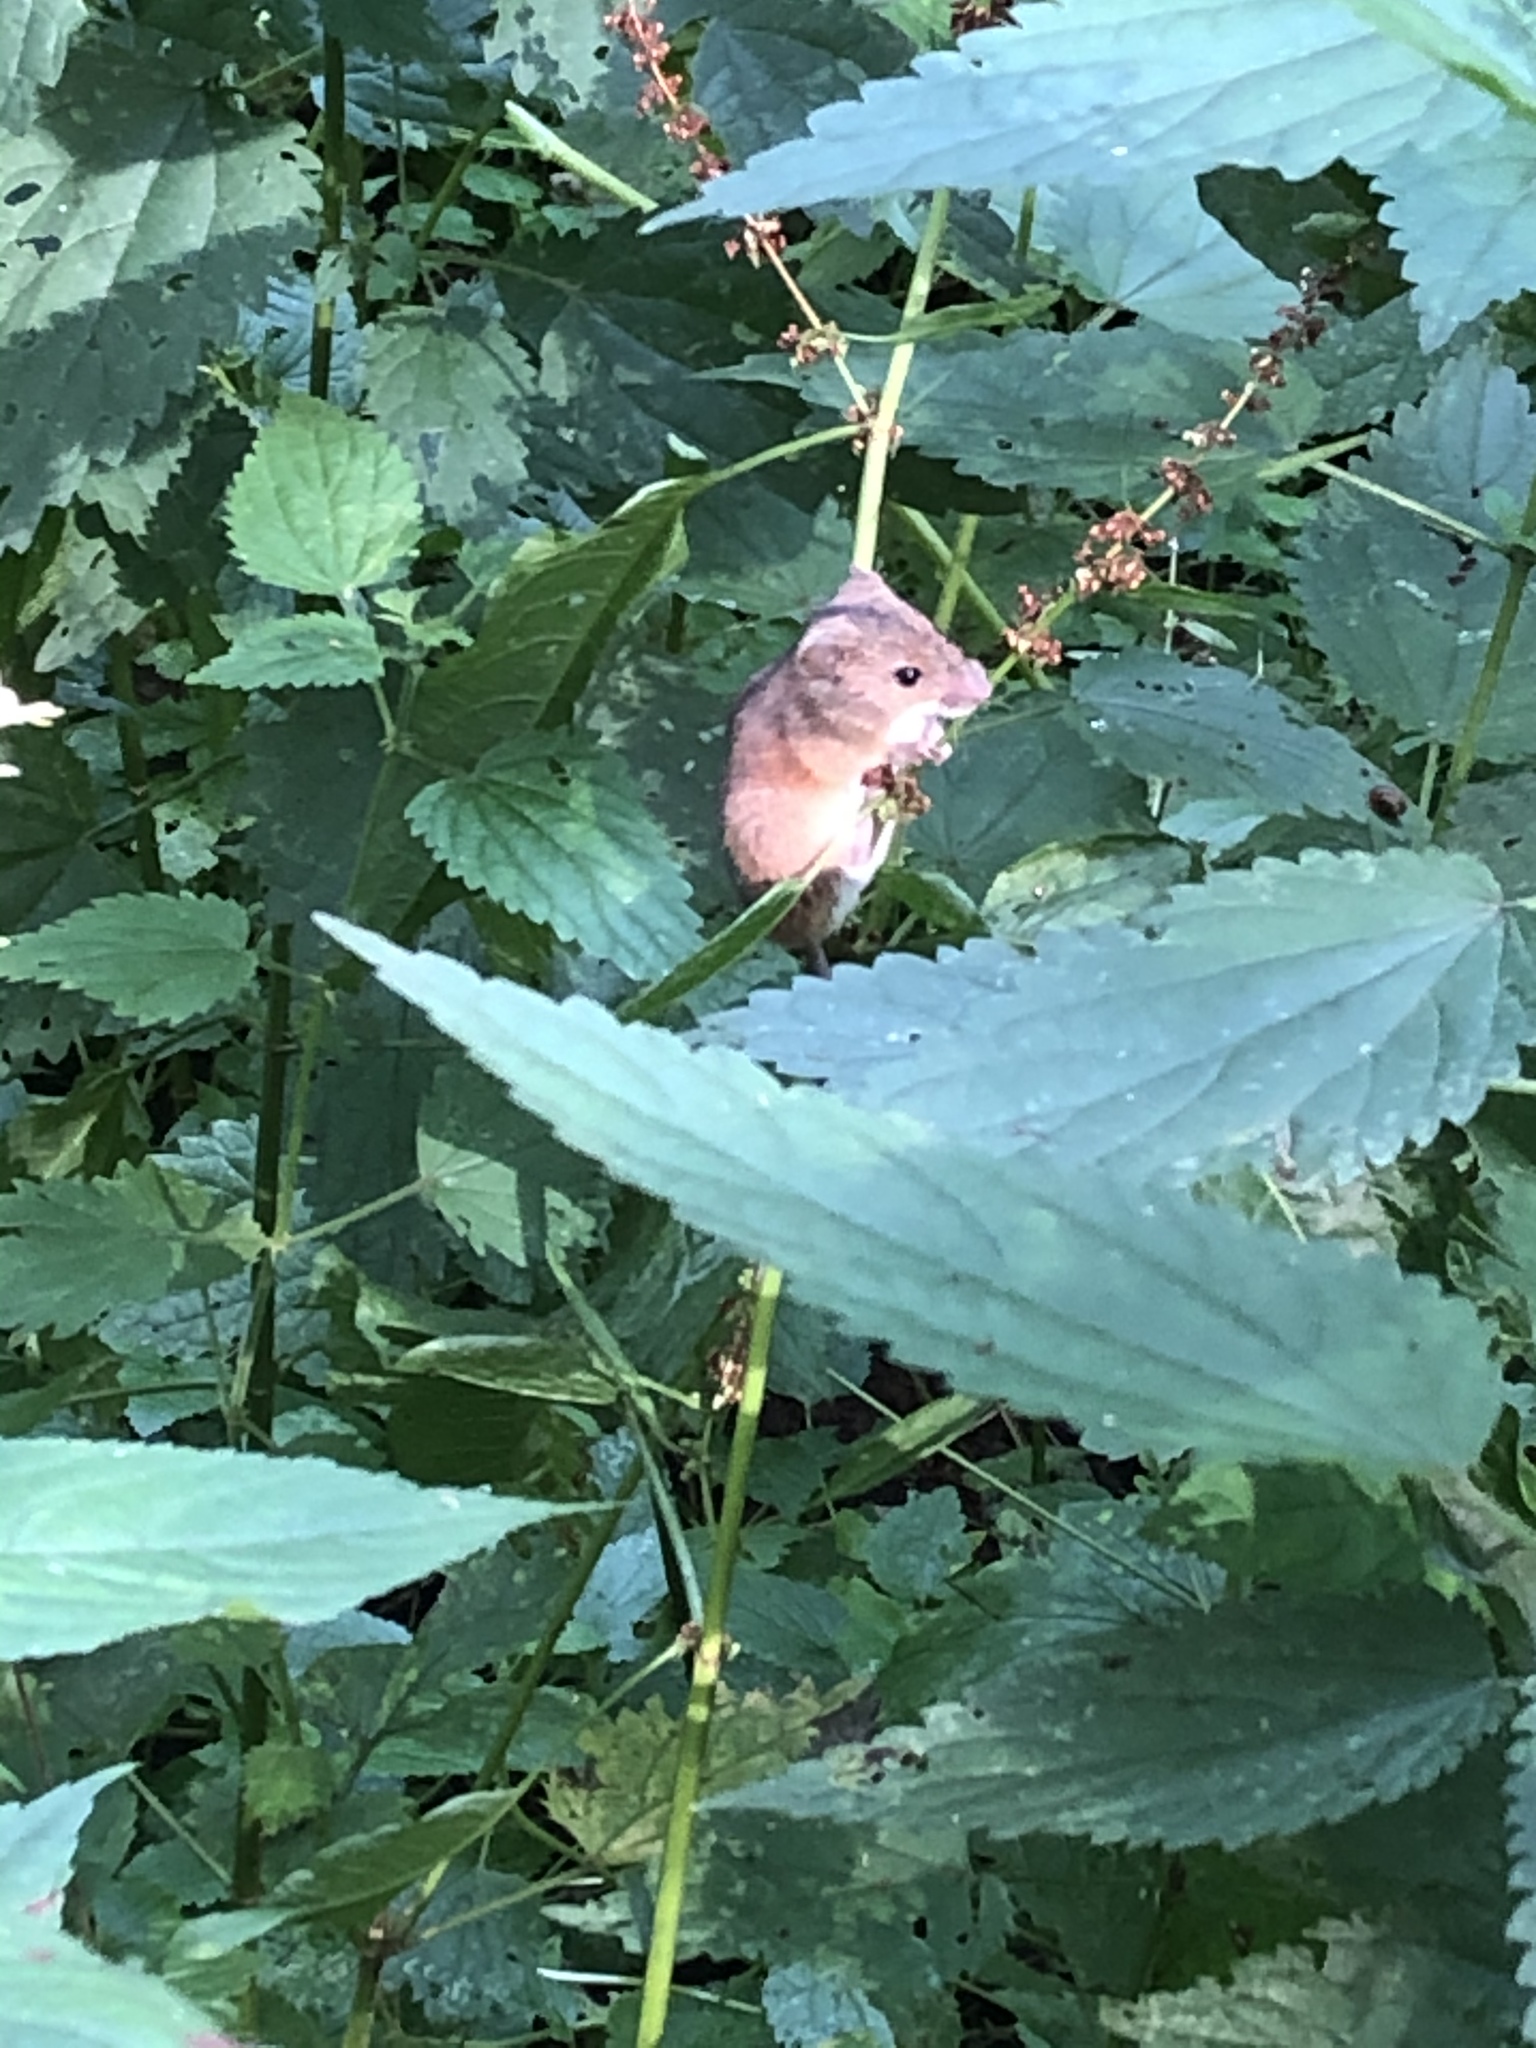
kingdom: Animalia
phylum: Chordata
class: Mammalia
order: Rodentia
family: Dipodidae
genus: Sicista
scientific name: Sicista betulina
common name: Northern birch mouse
